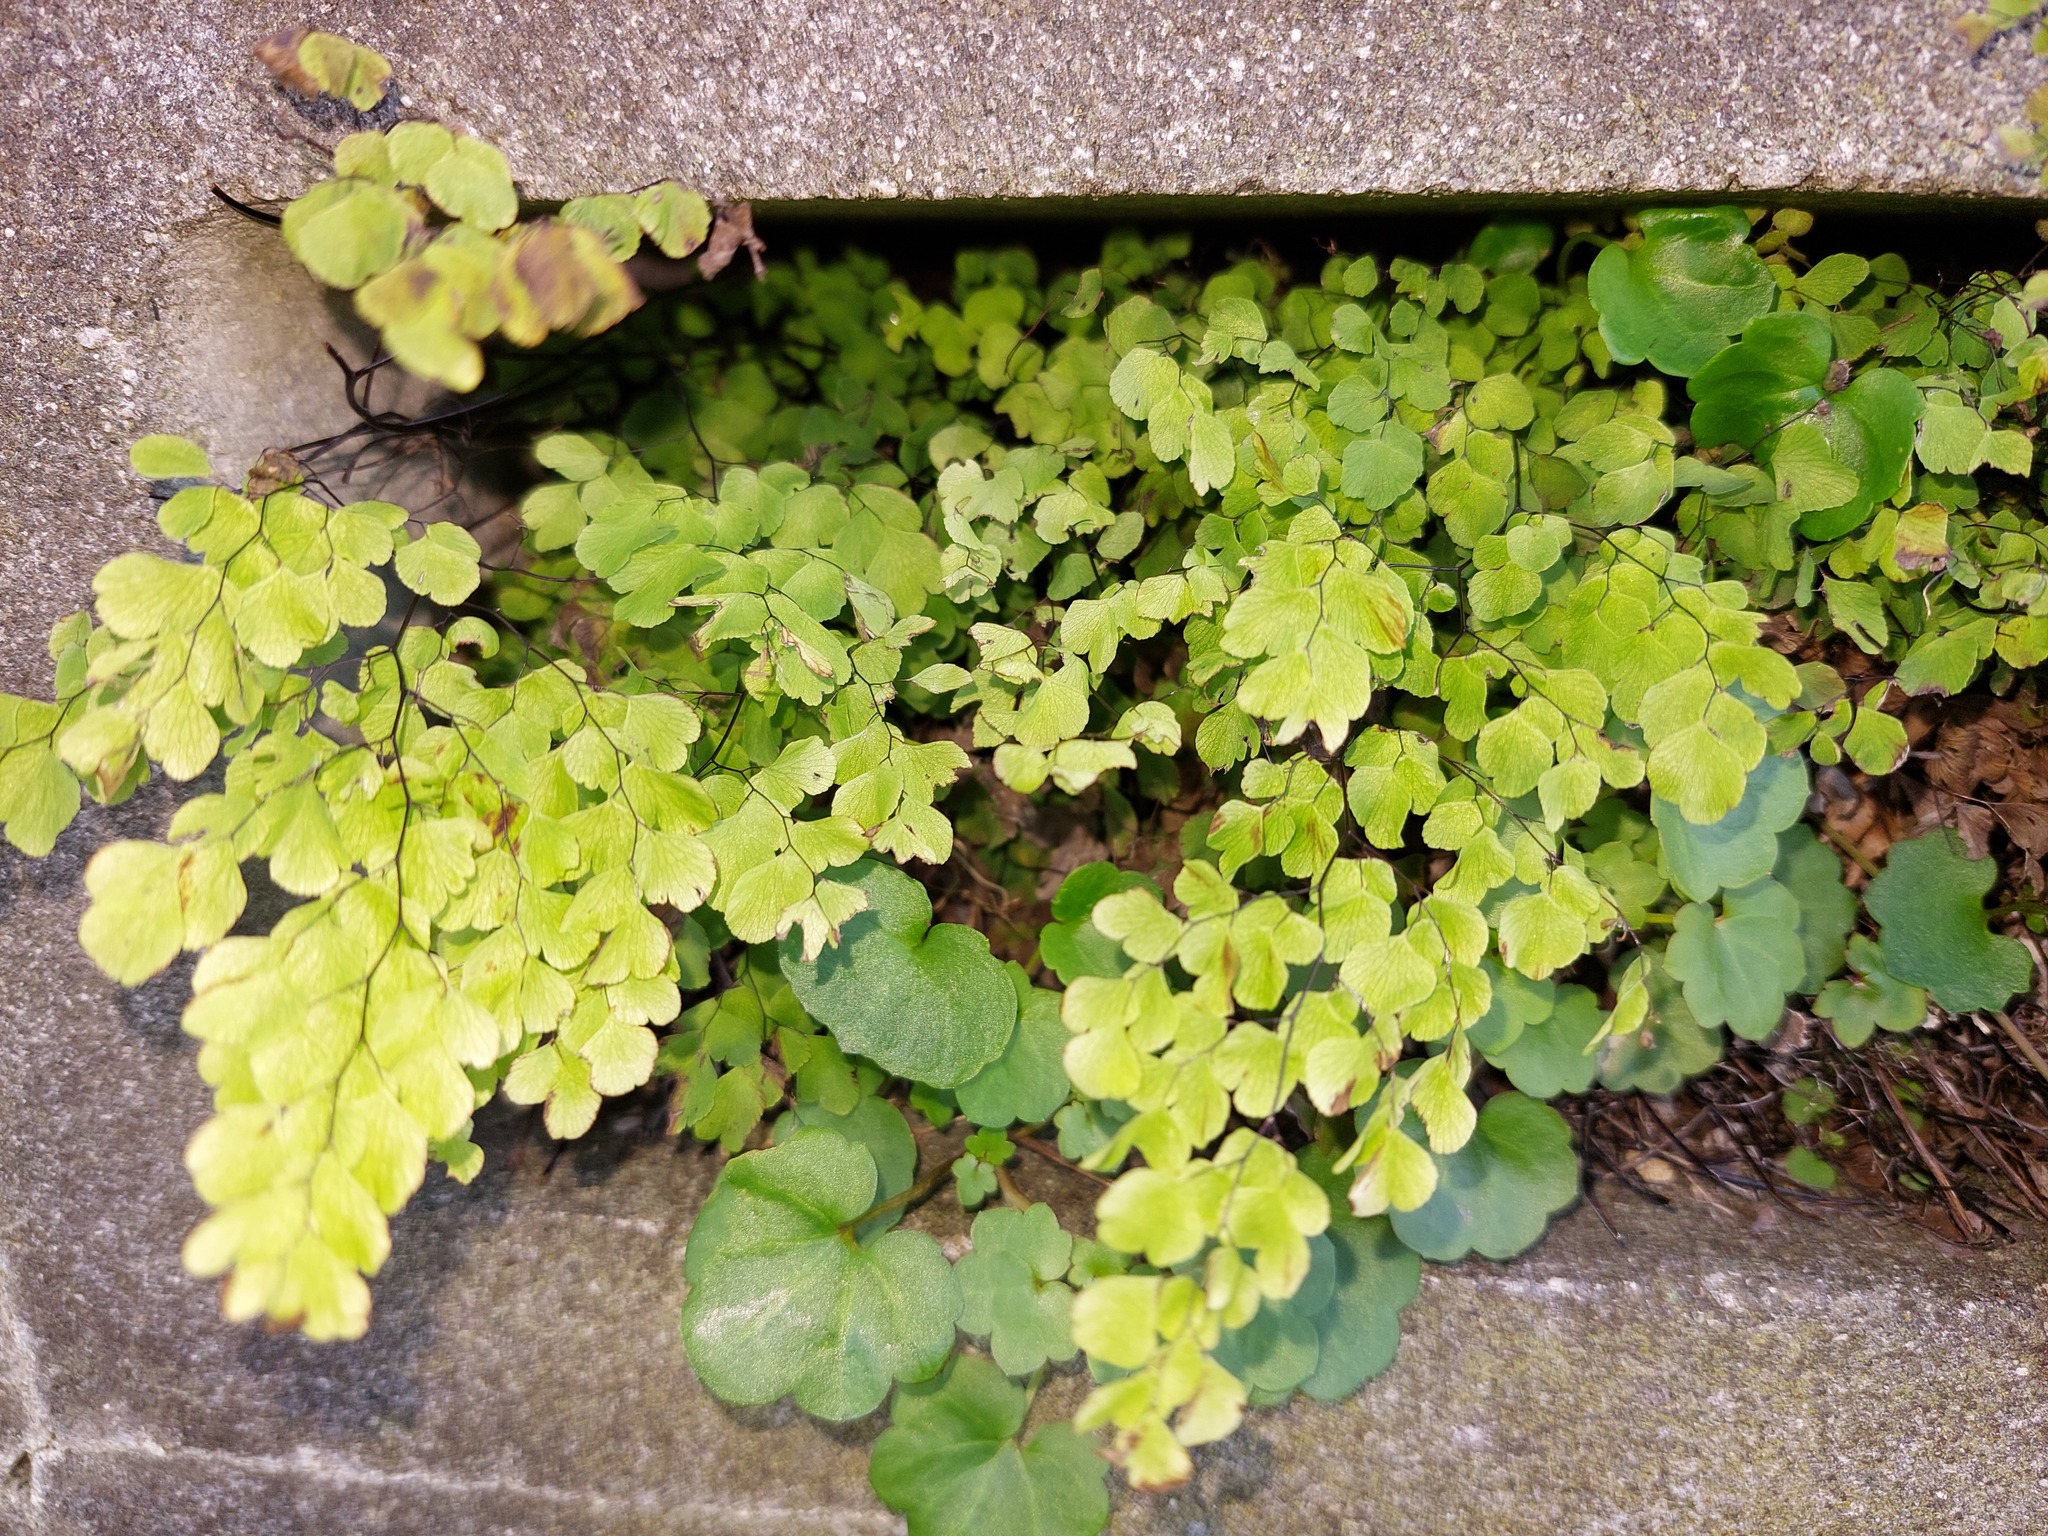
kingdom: Plantae
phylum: Tracheophyta
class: Polypodiopsida
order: Polypodiales
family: Pteridaceae
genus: Adiantum
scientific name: Adiantum raddianum
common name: Delta maidenhair fern
